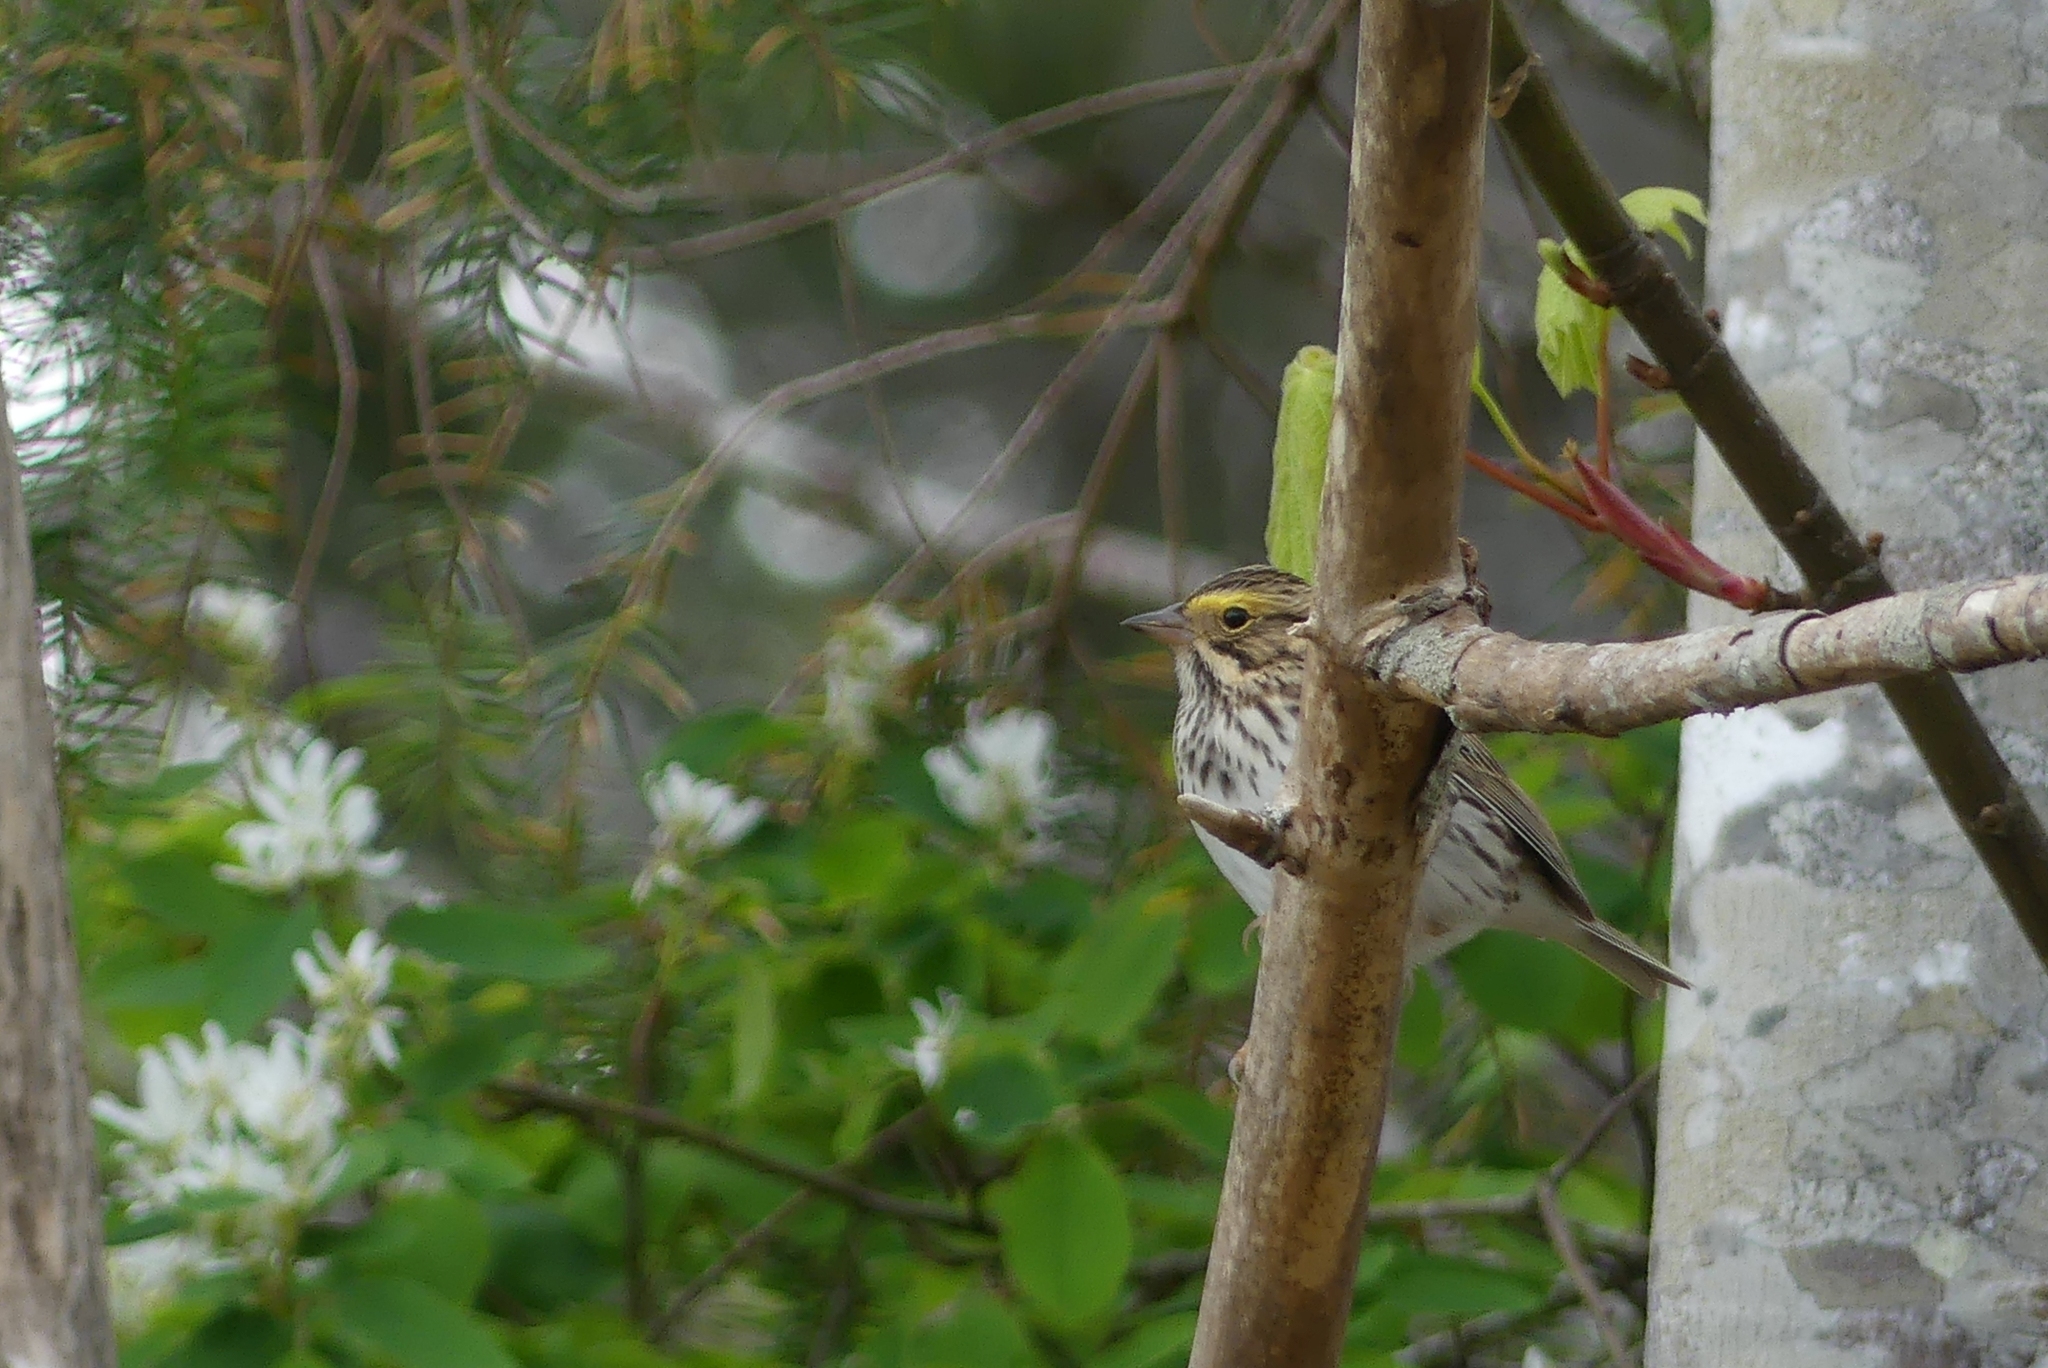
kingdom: Animalia
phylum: Chordata
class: Aves
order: Passeriformes
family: Passerellidae
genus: Passerculus
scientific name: Passerculus sandwichensis
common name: Savannah sparrow
